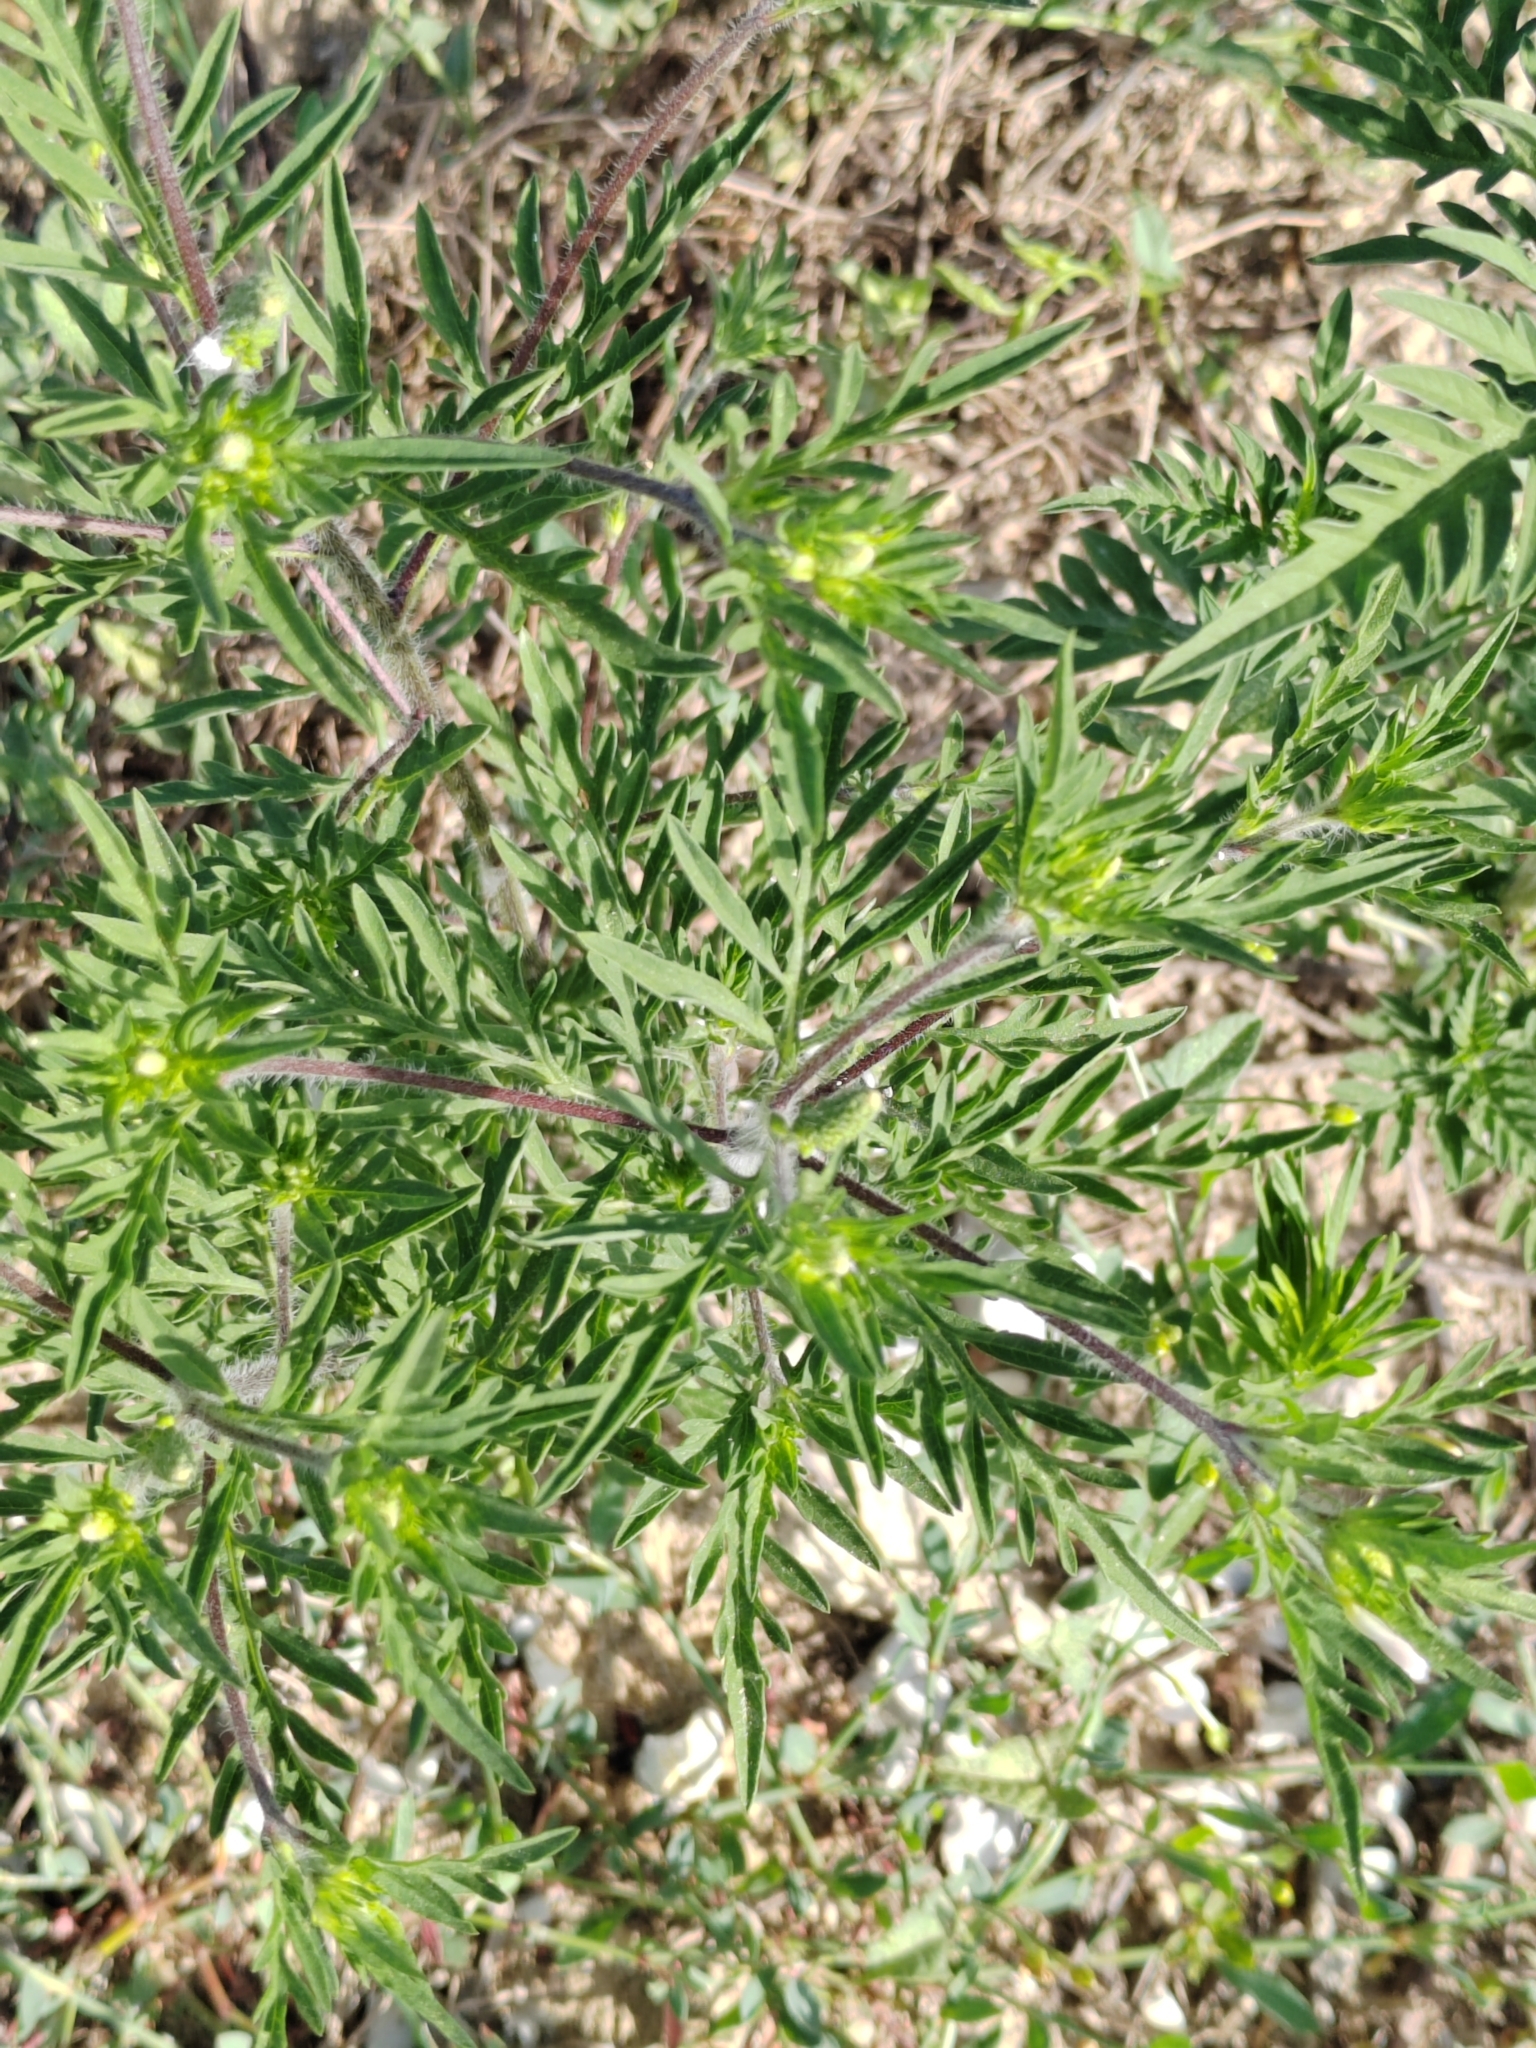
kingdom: Plantae
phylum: Tracheophyta
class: Magnoliopsida
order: Asterales
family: Asteraceae
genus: Ambrosia
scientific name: Ambrosia artemisiifolia
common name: Annual ragweed
